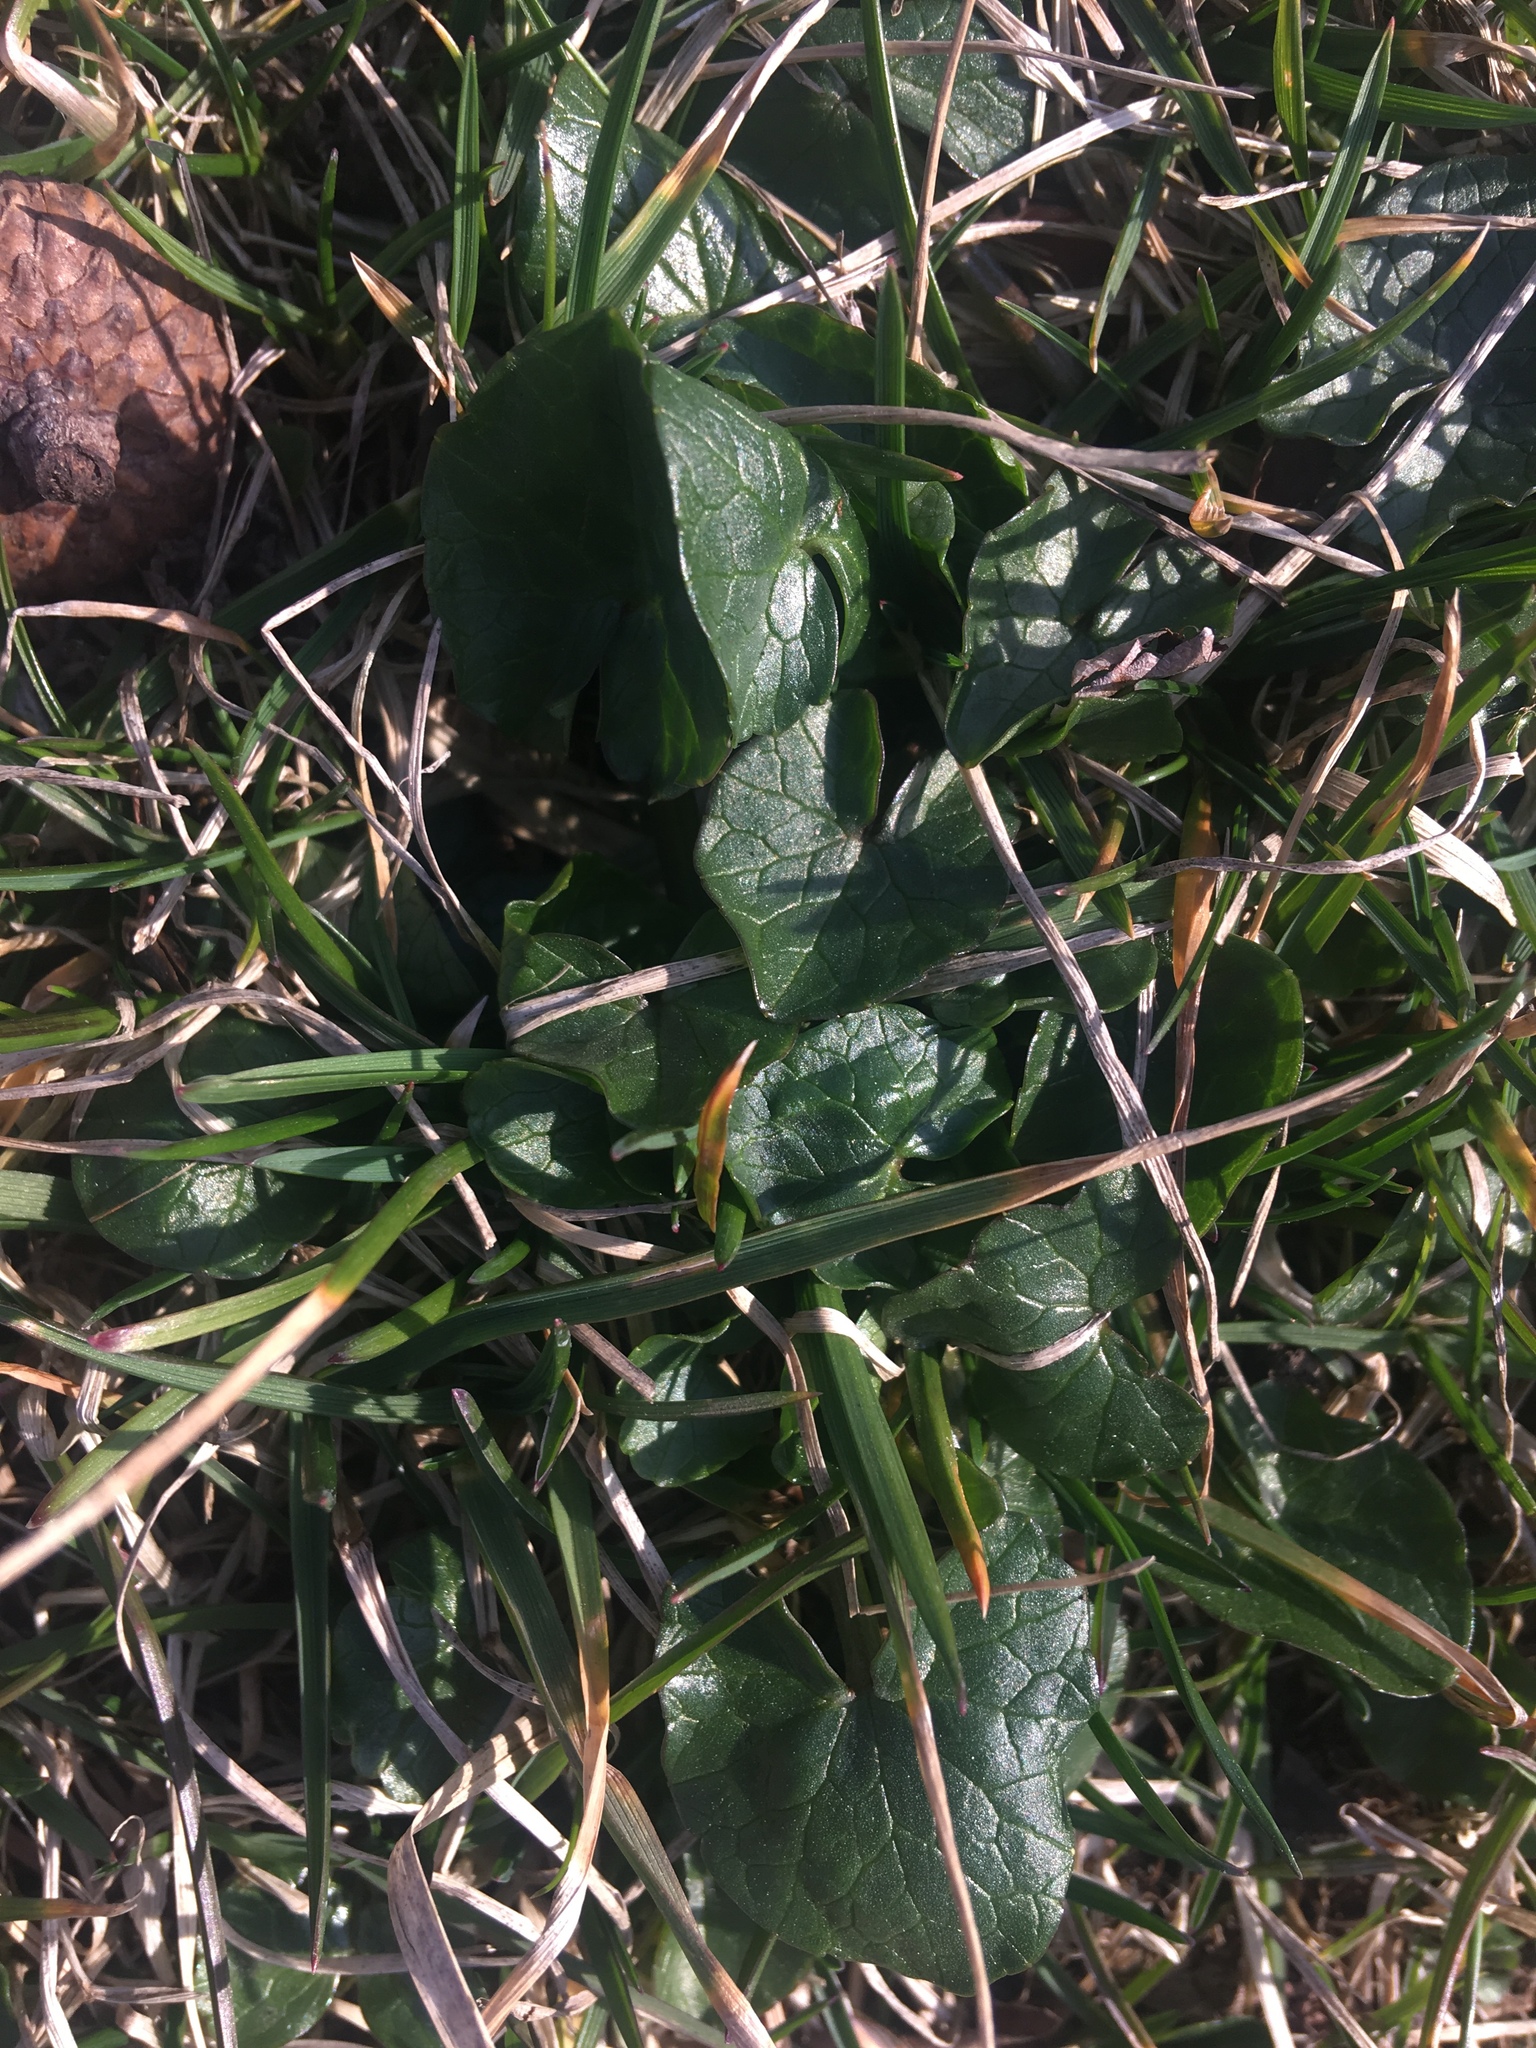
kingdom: Plantae
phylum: Tracheophyta
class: Magnoliopsida
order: Ranunculales
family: Ranunculaceae
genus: Ficaria
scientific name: Ficaria verna
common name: Lesser celandine
